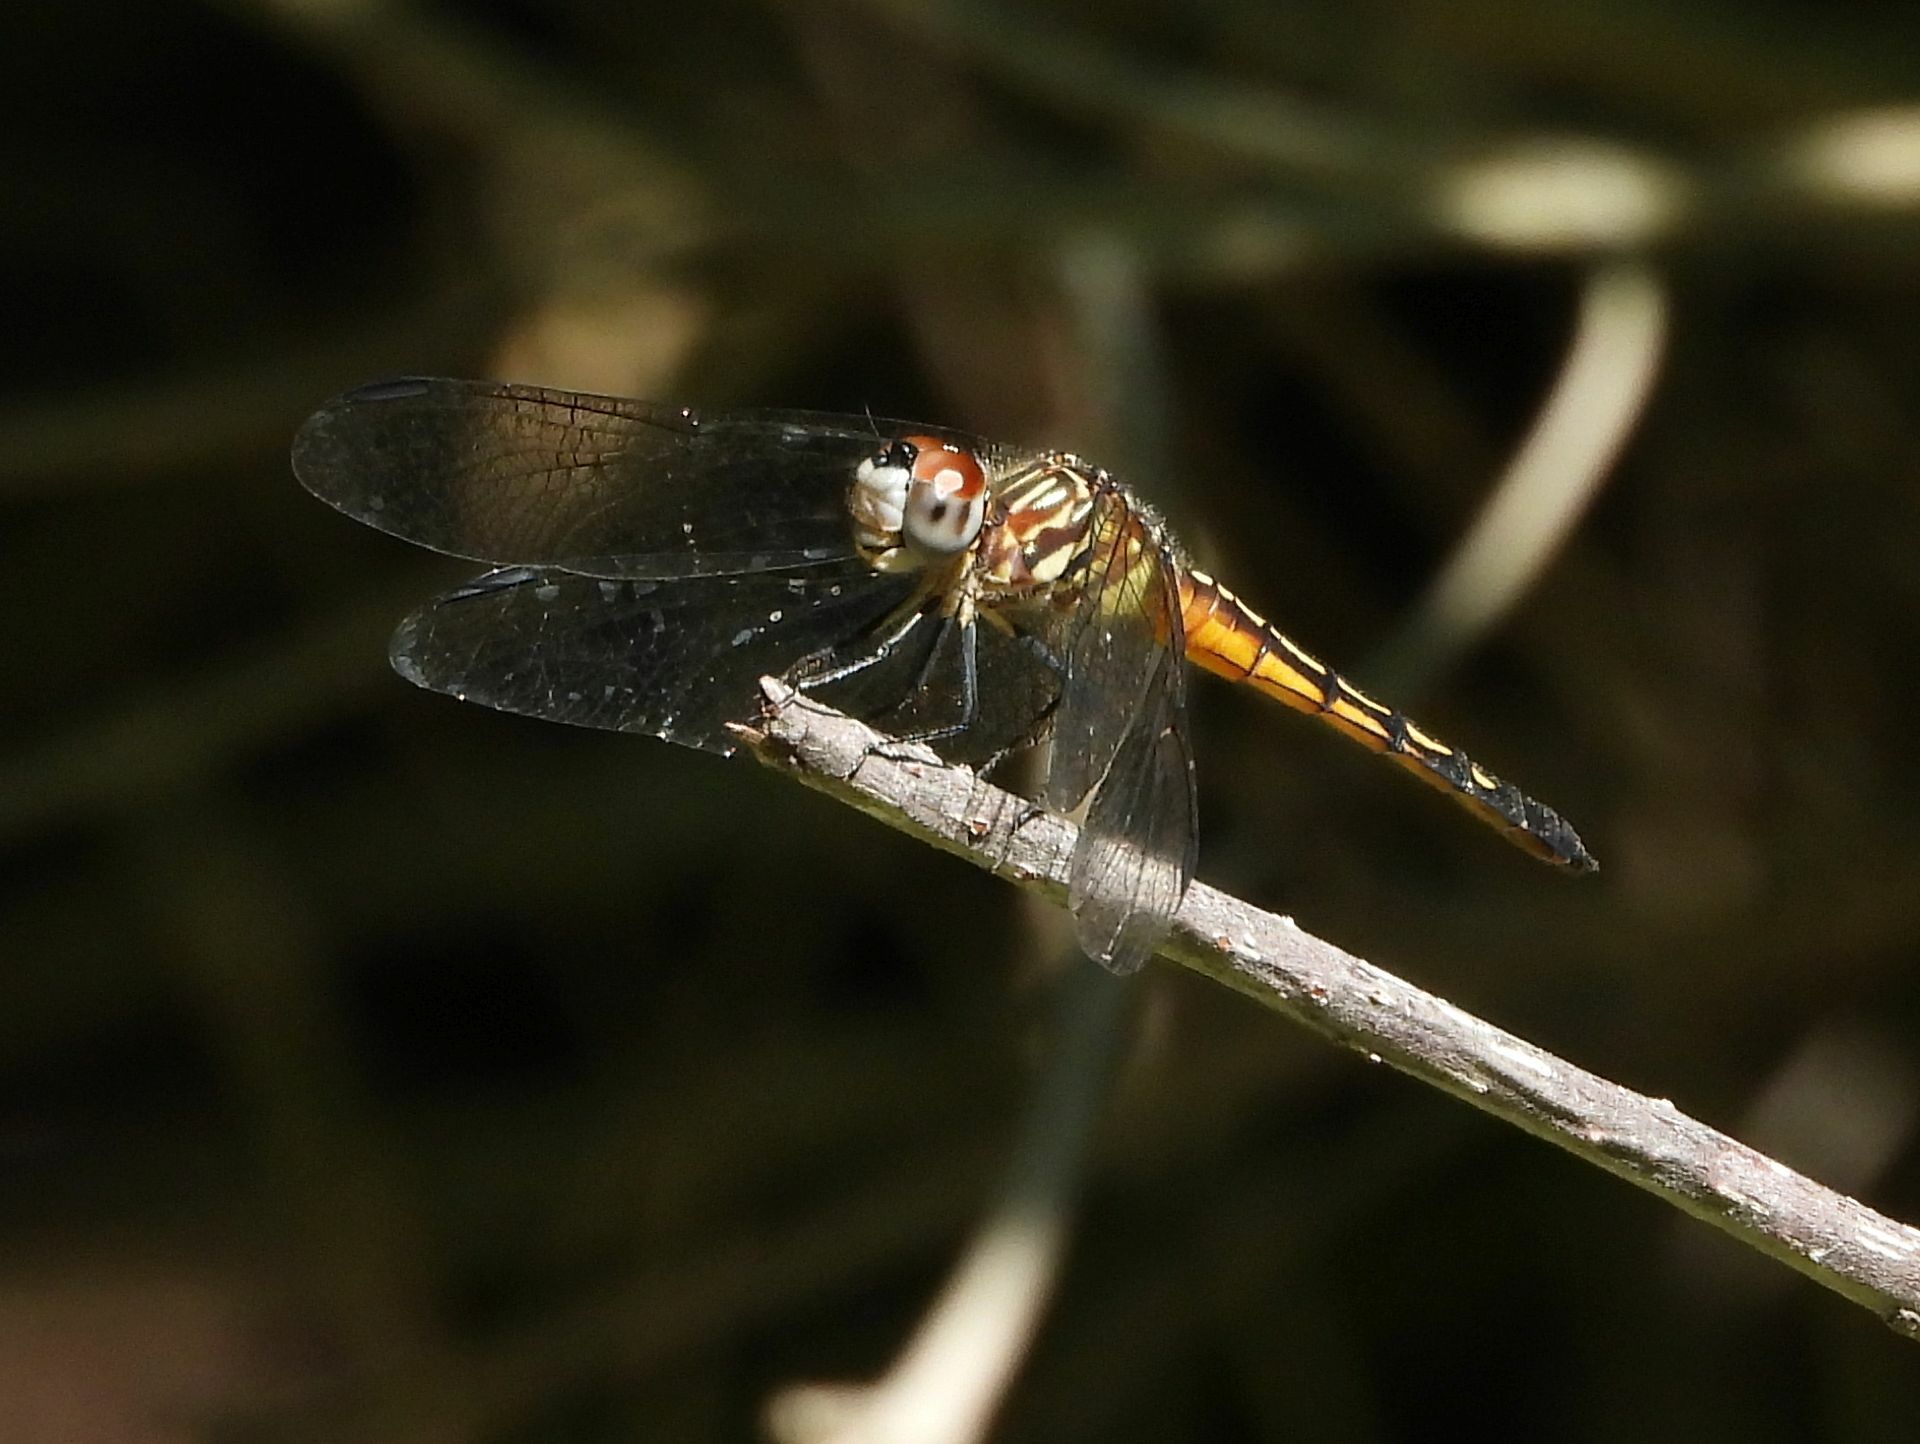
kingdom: Animalia
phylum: Arthropoda
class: Insecta
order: Odonata
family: Libellulidae
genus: Pachydiplax
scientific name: Pachydiplax longipennis
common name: Blue dasher
